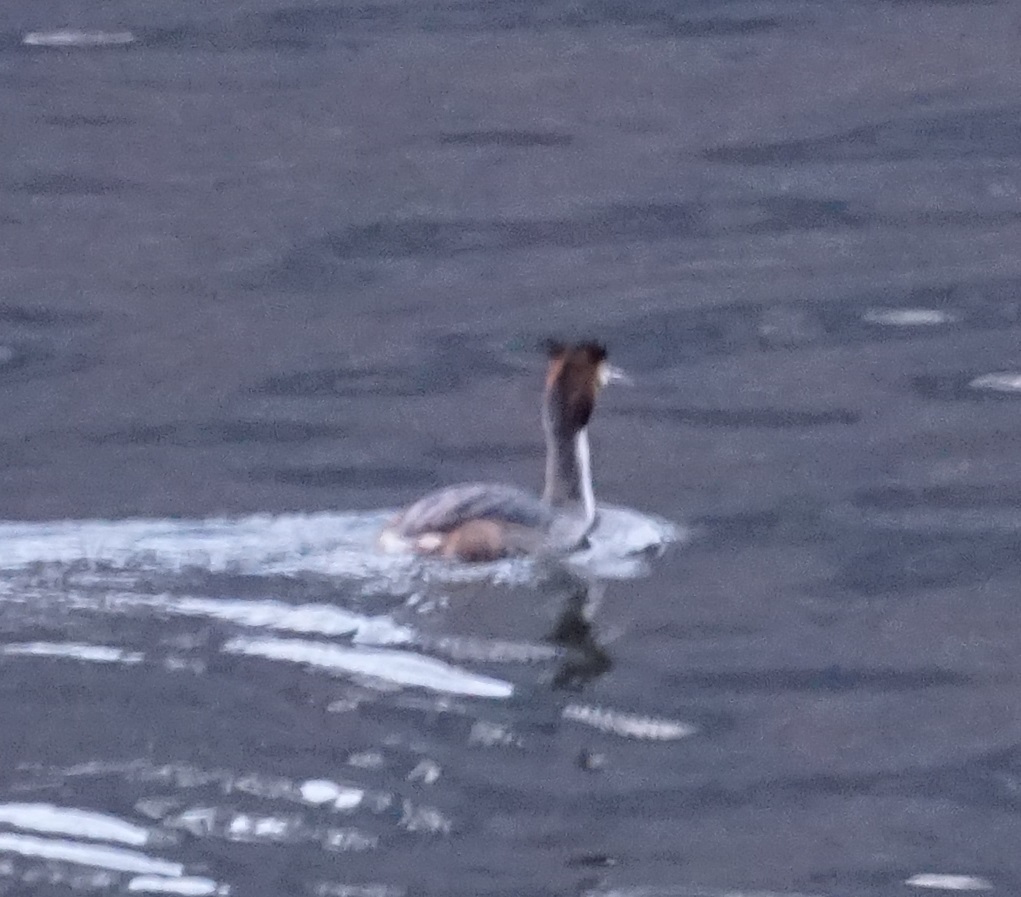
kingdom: Animalia
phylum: Chordata
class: Aves
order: Podicipediformes
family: Podicipedidae
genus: Podiceps
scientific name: Podiceps cristatus
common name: Great crested grebe
